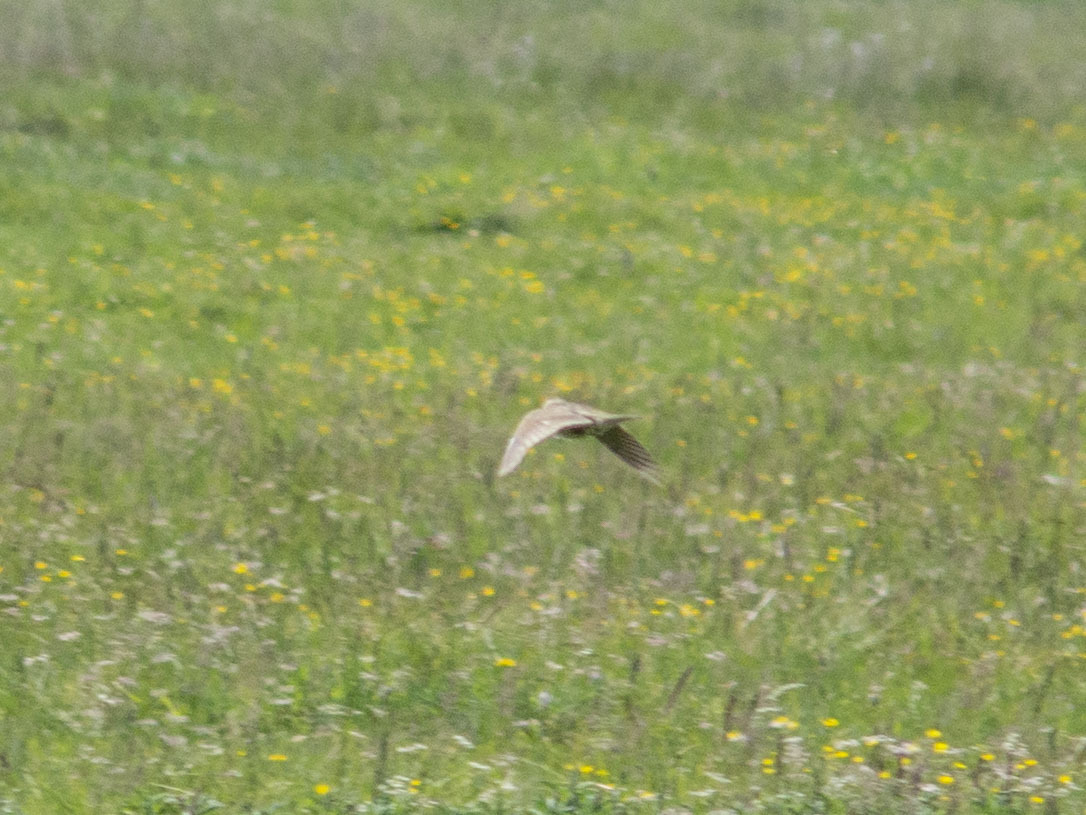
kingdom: Animalia
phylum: Chordata
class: Aves
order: Passeriformes
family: Alaudidae
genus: Alauda
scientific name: Alauda arvensis
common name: Eurasian skylark
